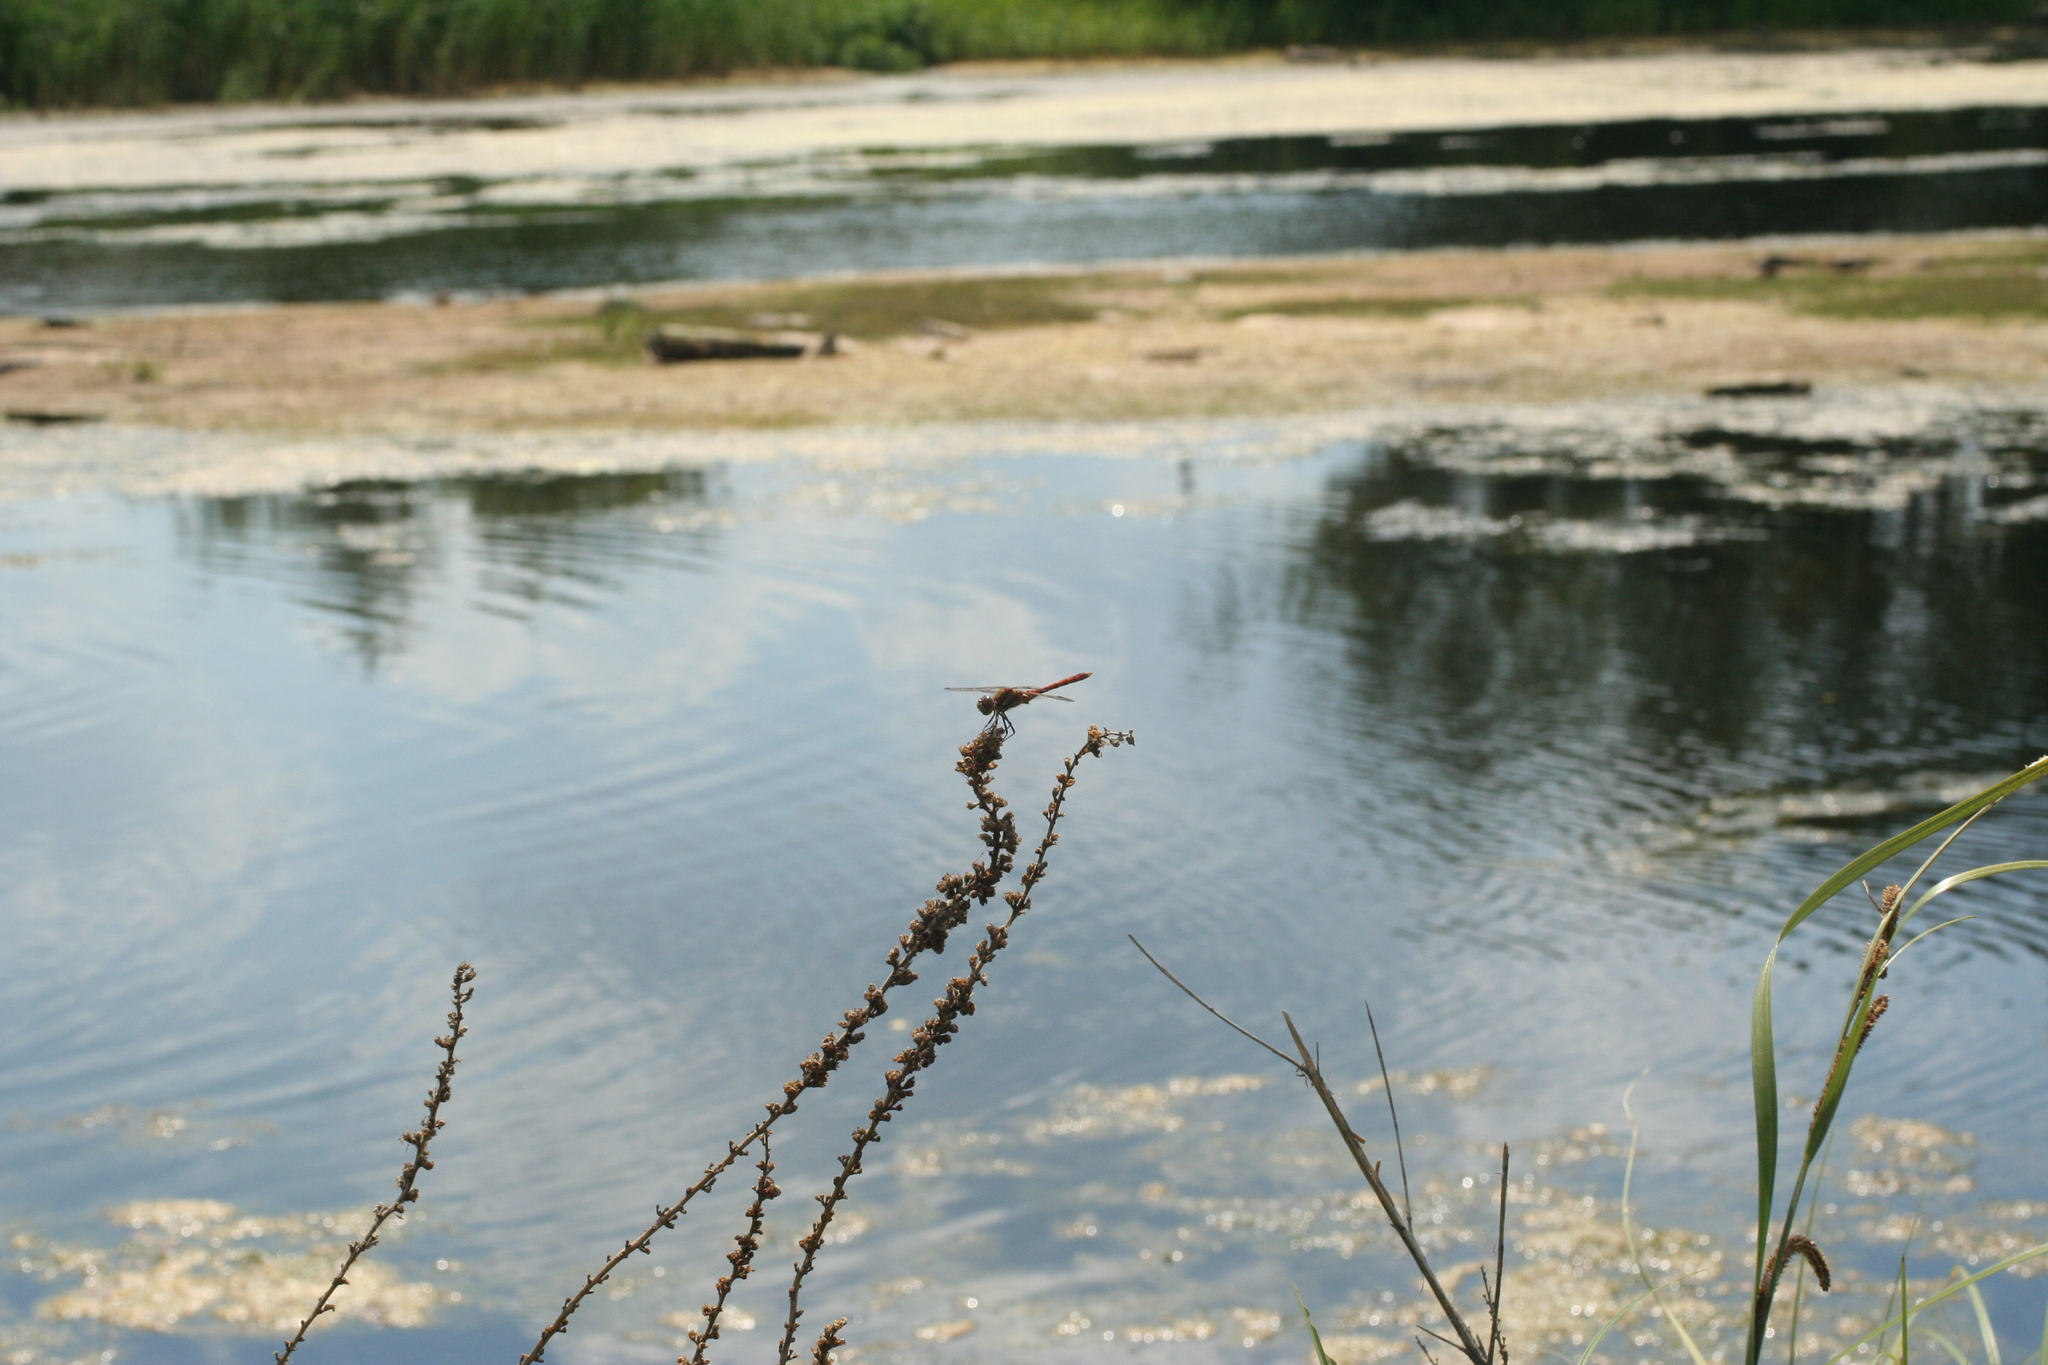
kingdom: Animalia
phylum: Arthropoda
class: Insecta
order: Odonata
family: Libellulidae
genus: Sympetrum
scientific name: Sympetrum vulgatum
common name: Vagrant darter
